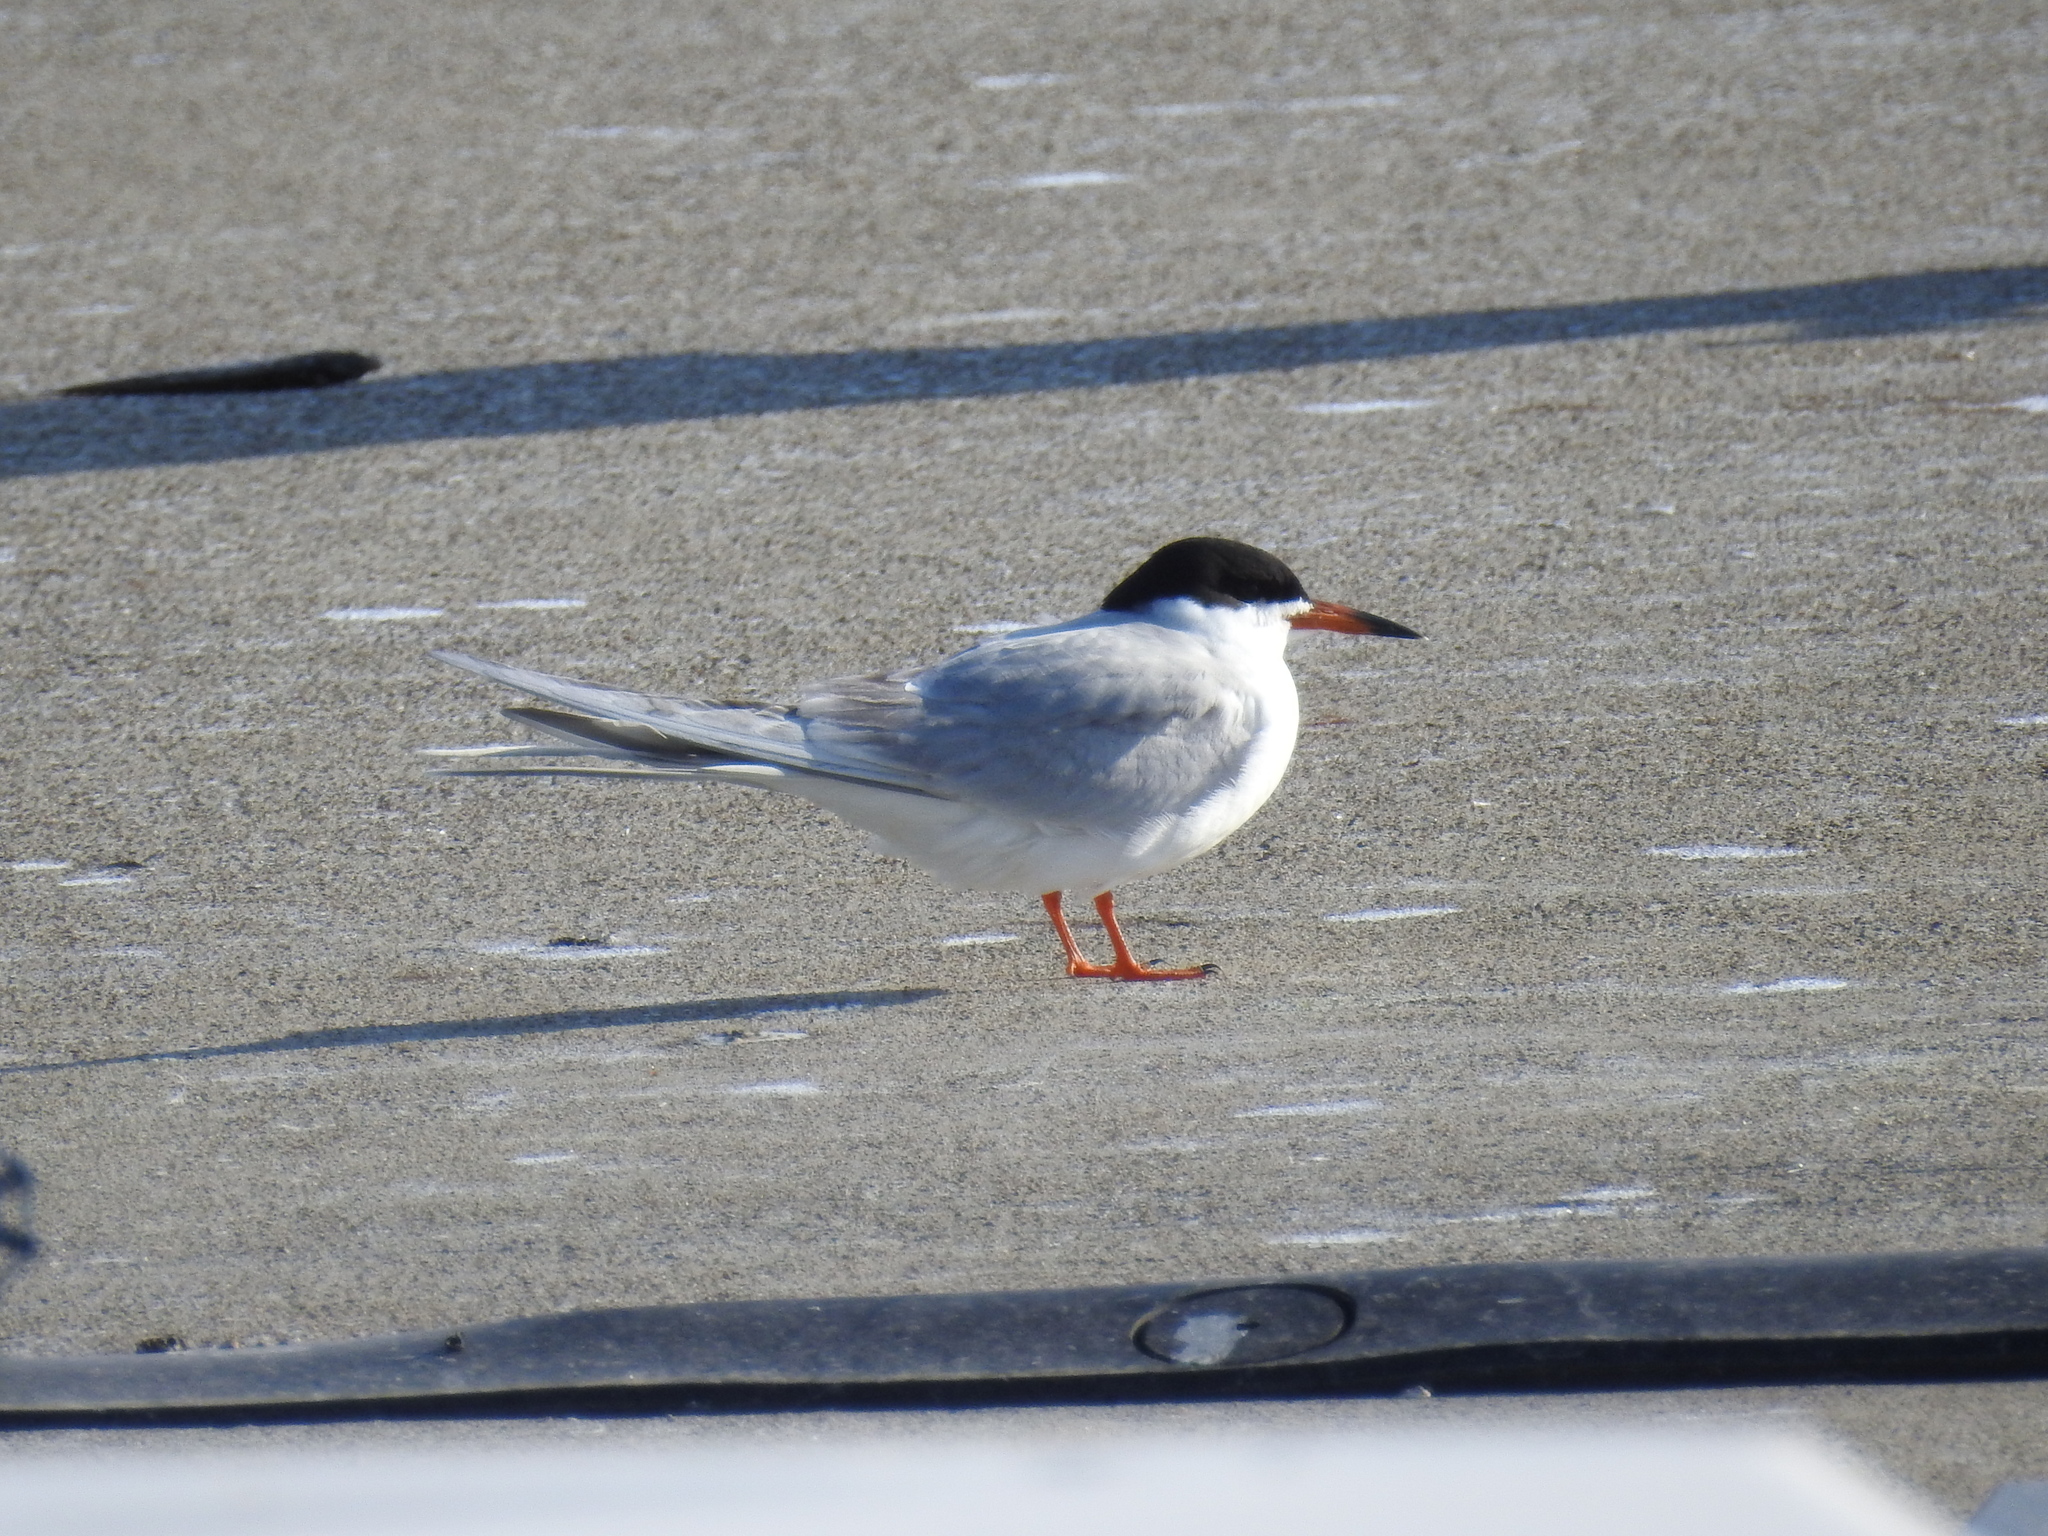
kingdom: Animalia
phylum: Chordata
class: Aves
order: Charadriiformes
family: Laridae
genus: Sterna
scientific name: Sterna forsteri
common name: Forster's tern
